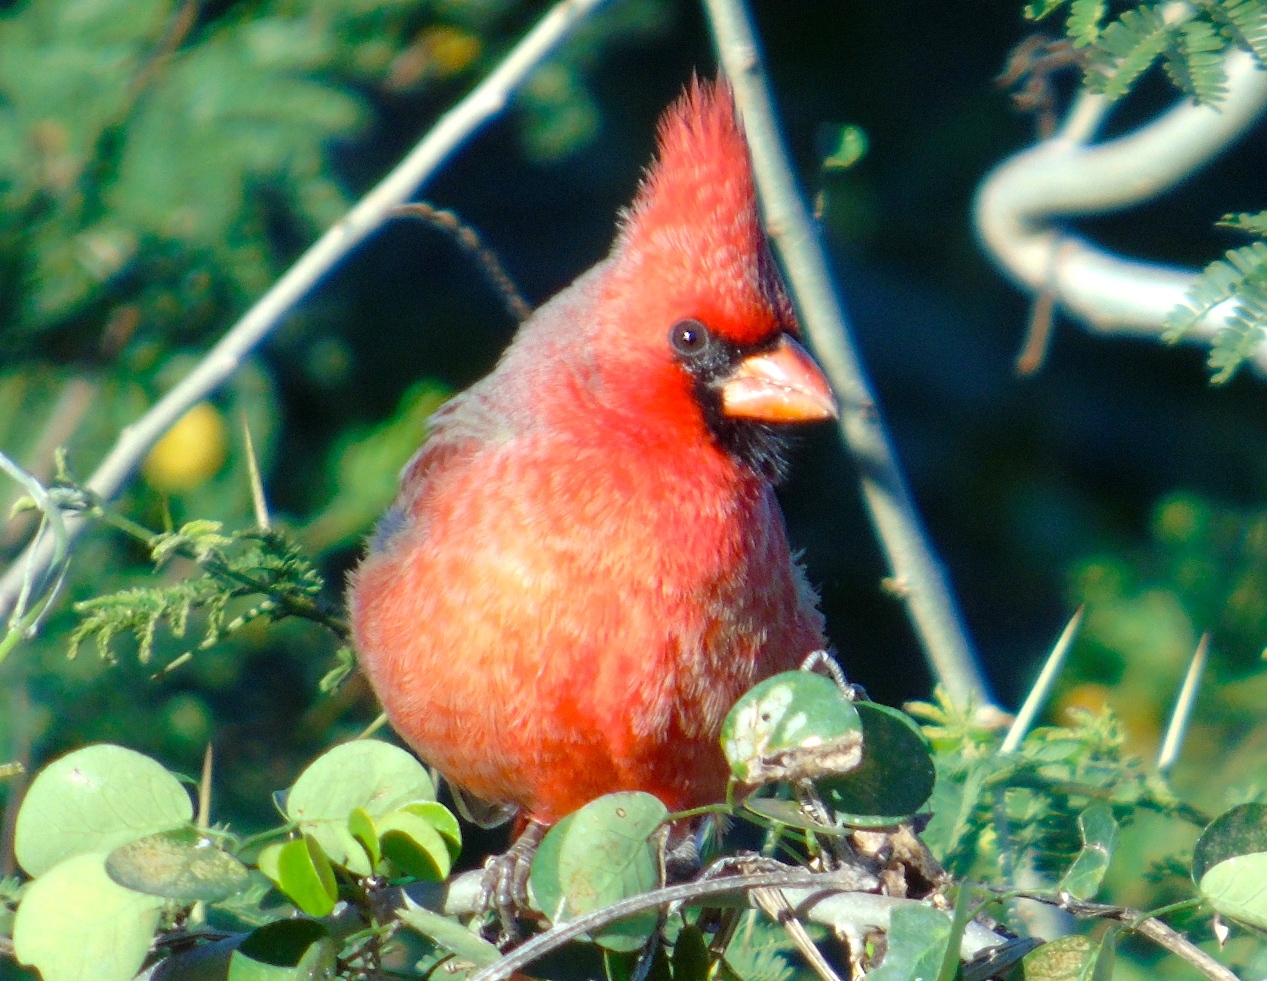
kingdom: Animalia
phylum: Chordata
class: Aves
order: Passeriformes
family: Cardinalidae
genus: Cardinalis
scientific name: Cardinalis cardinalis
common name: Northern cardinal
